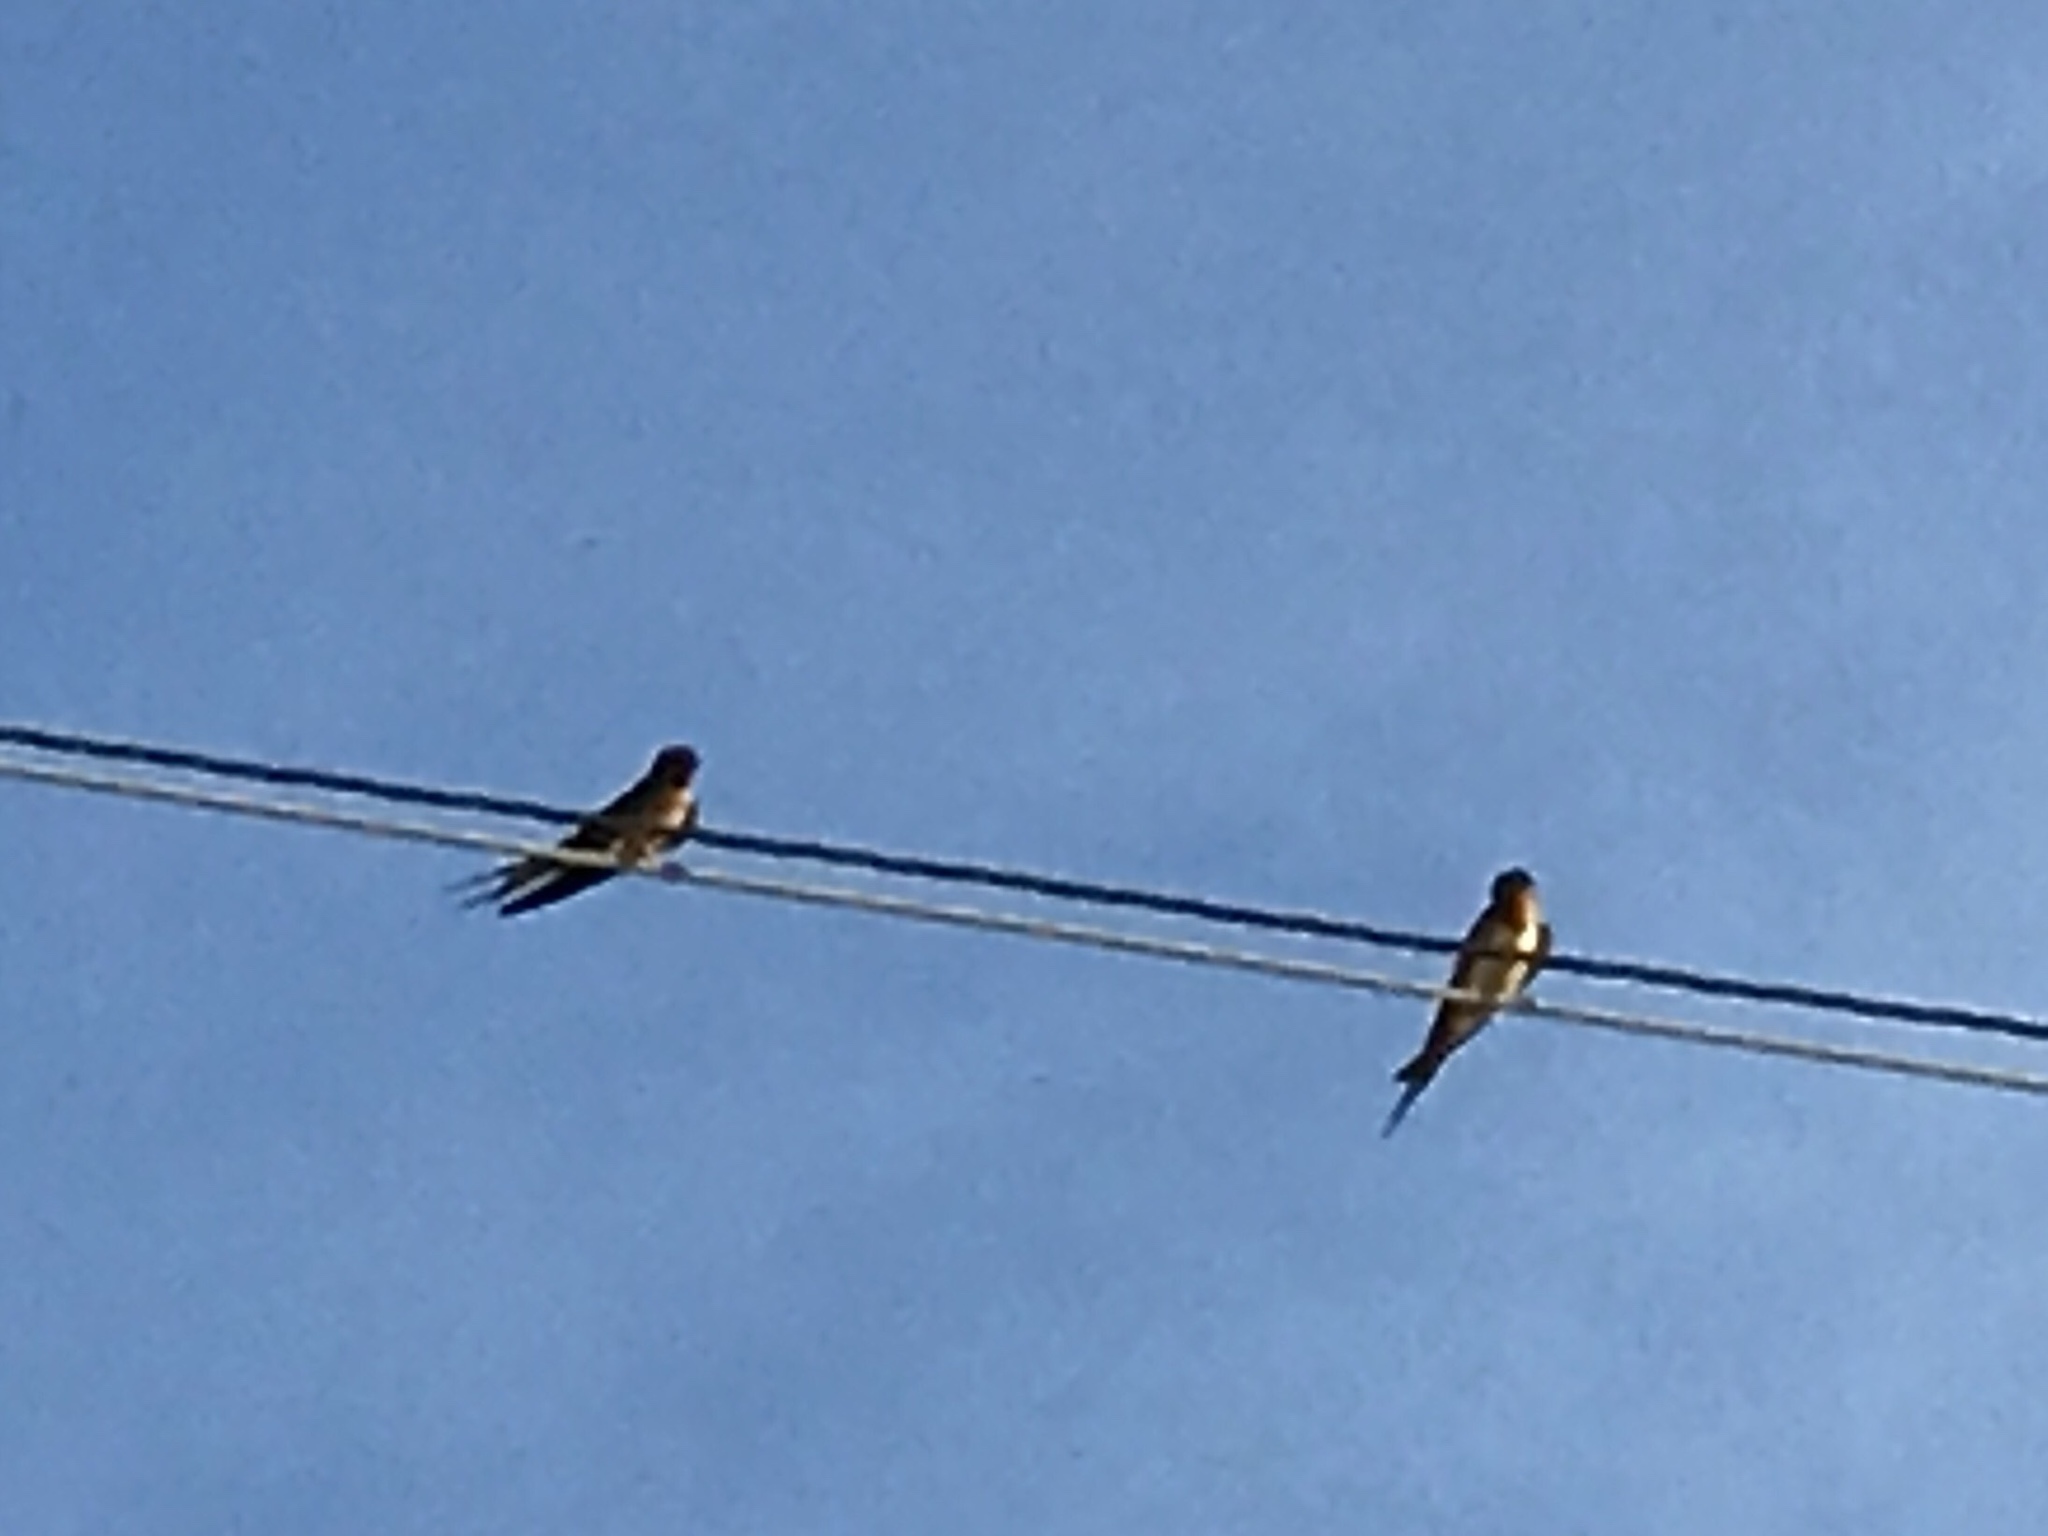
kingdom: Animalia
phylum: Chordata
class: Aves
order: Passeriformes
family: Hirundinidae
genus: Hirundo
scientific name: Hirundo rustica
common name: Barn swallow
